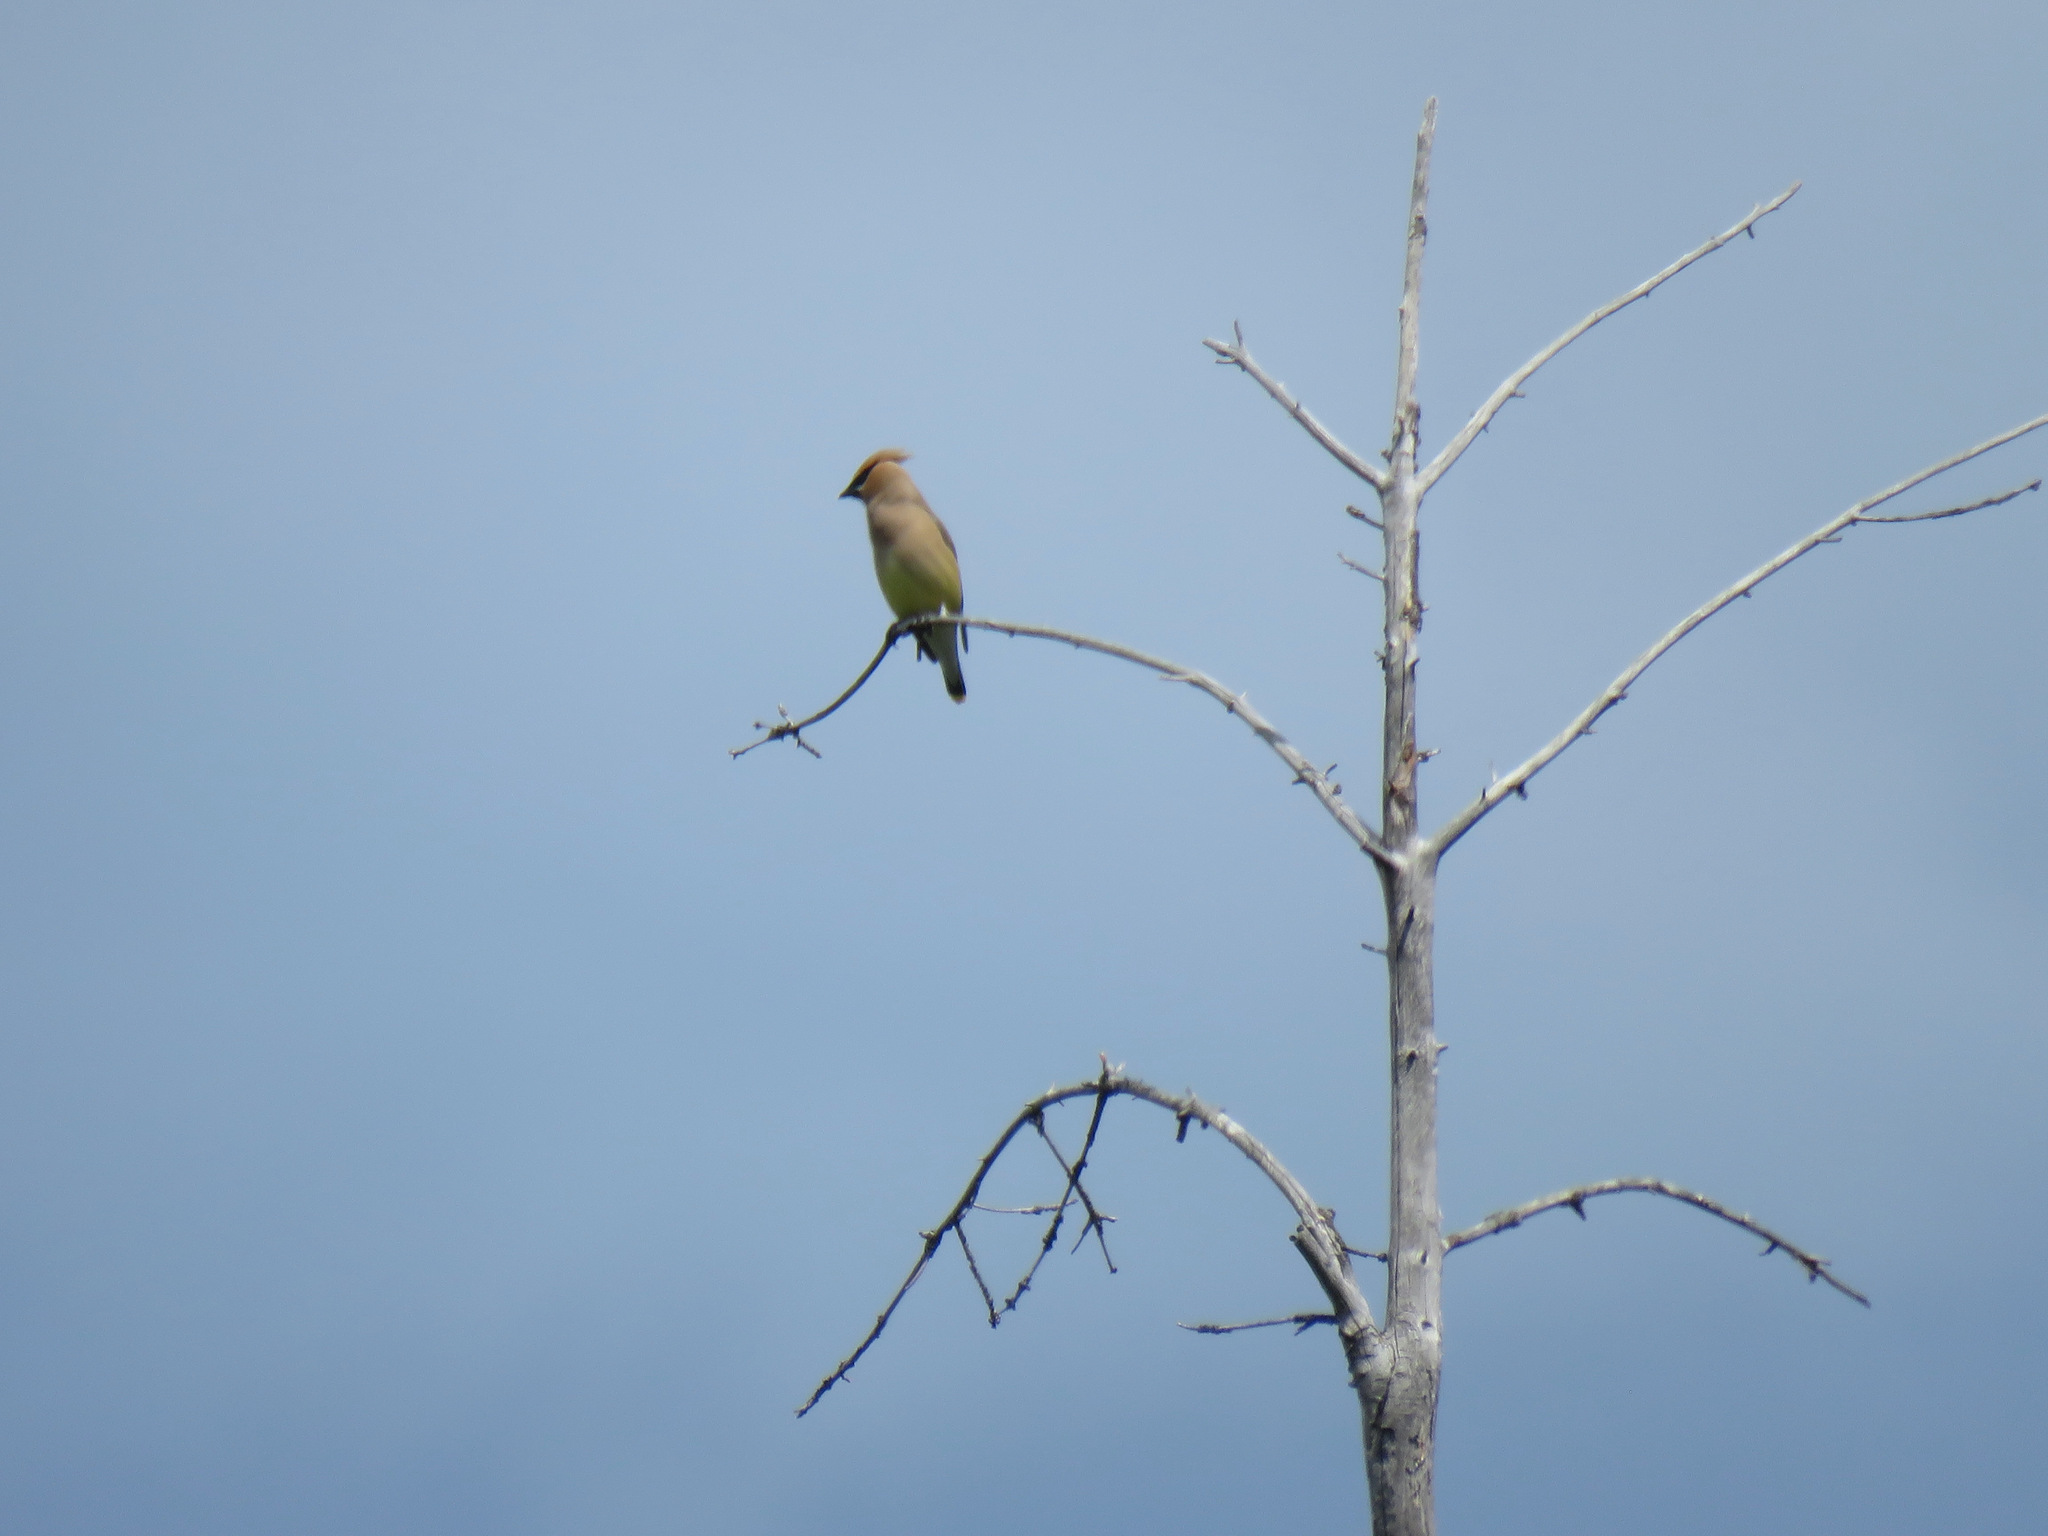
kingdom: Animalia
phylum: Chordata
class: Aves
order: Passeriformes
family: Bombycillidae
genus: Bombycilla
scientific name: Bombycilla cedrorum
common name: Cedar waxwing
